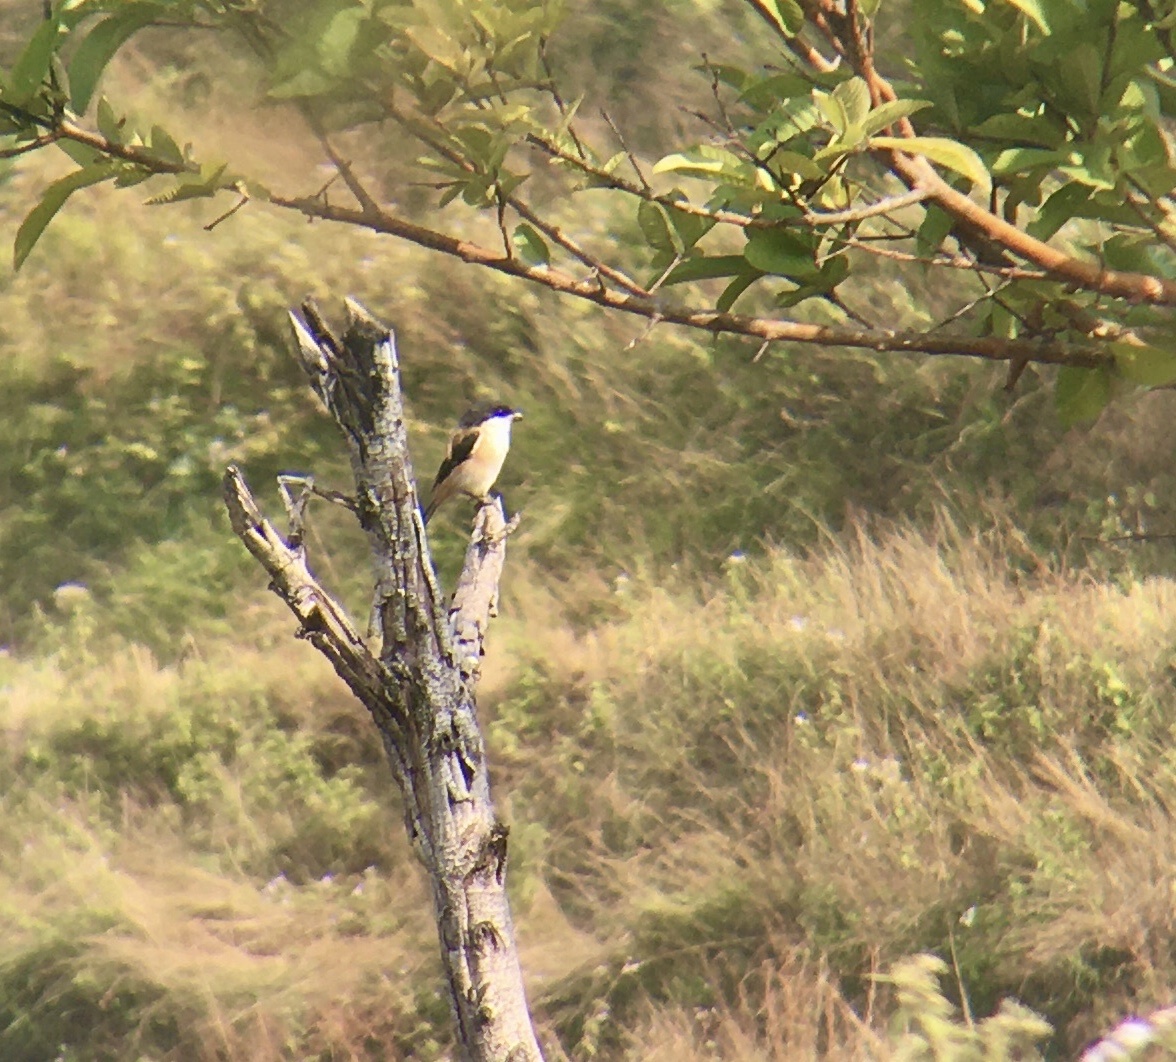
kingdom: Animalia
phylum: Chordata
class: Aves
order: Passeriformes
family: Laniidae
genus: Lanius
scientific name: Lanius schach
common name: Long-tailed shrike
